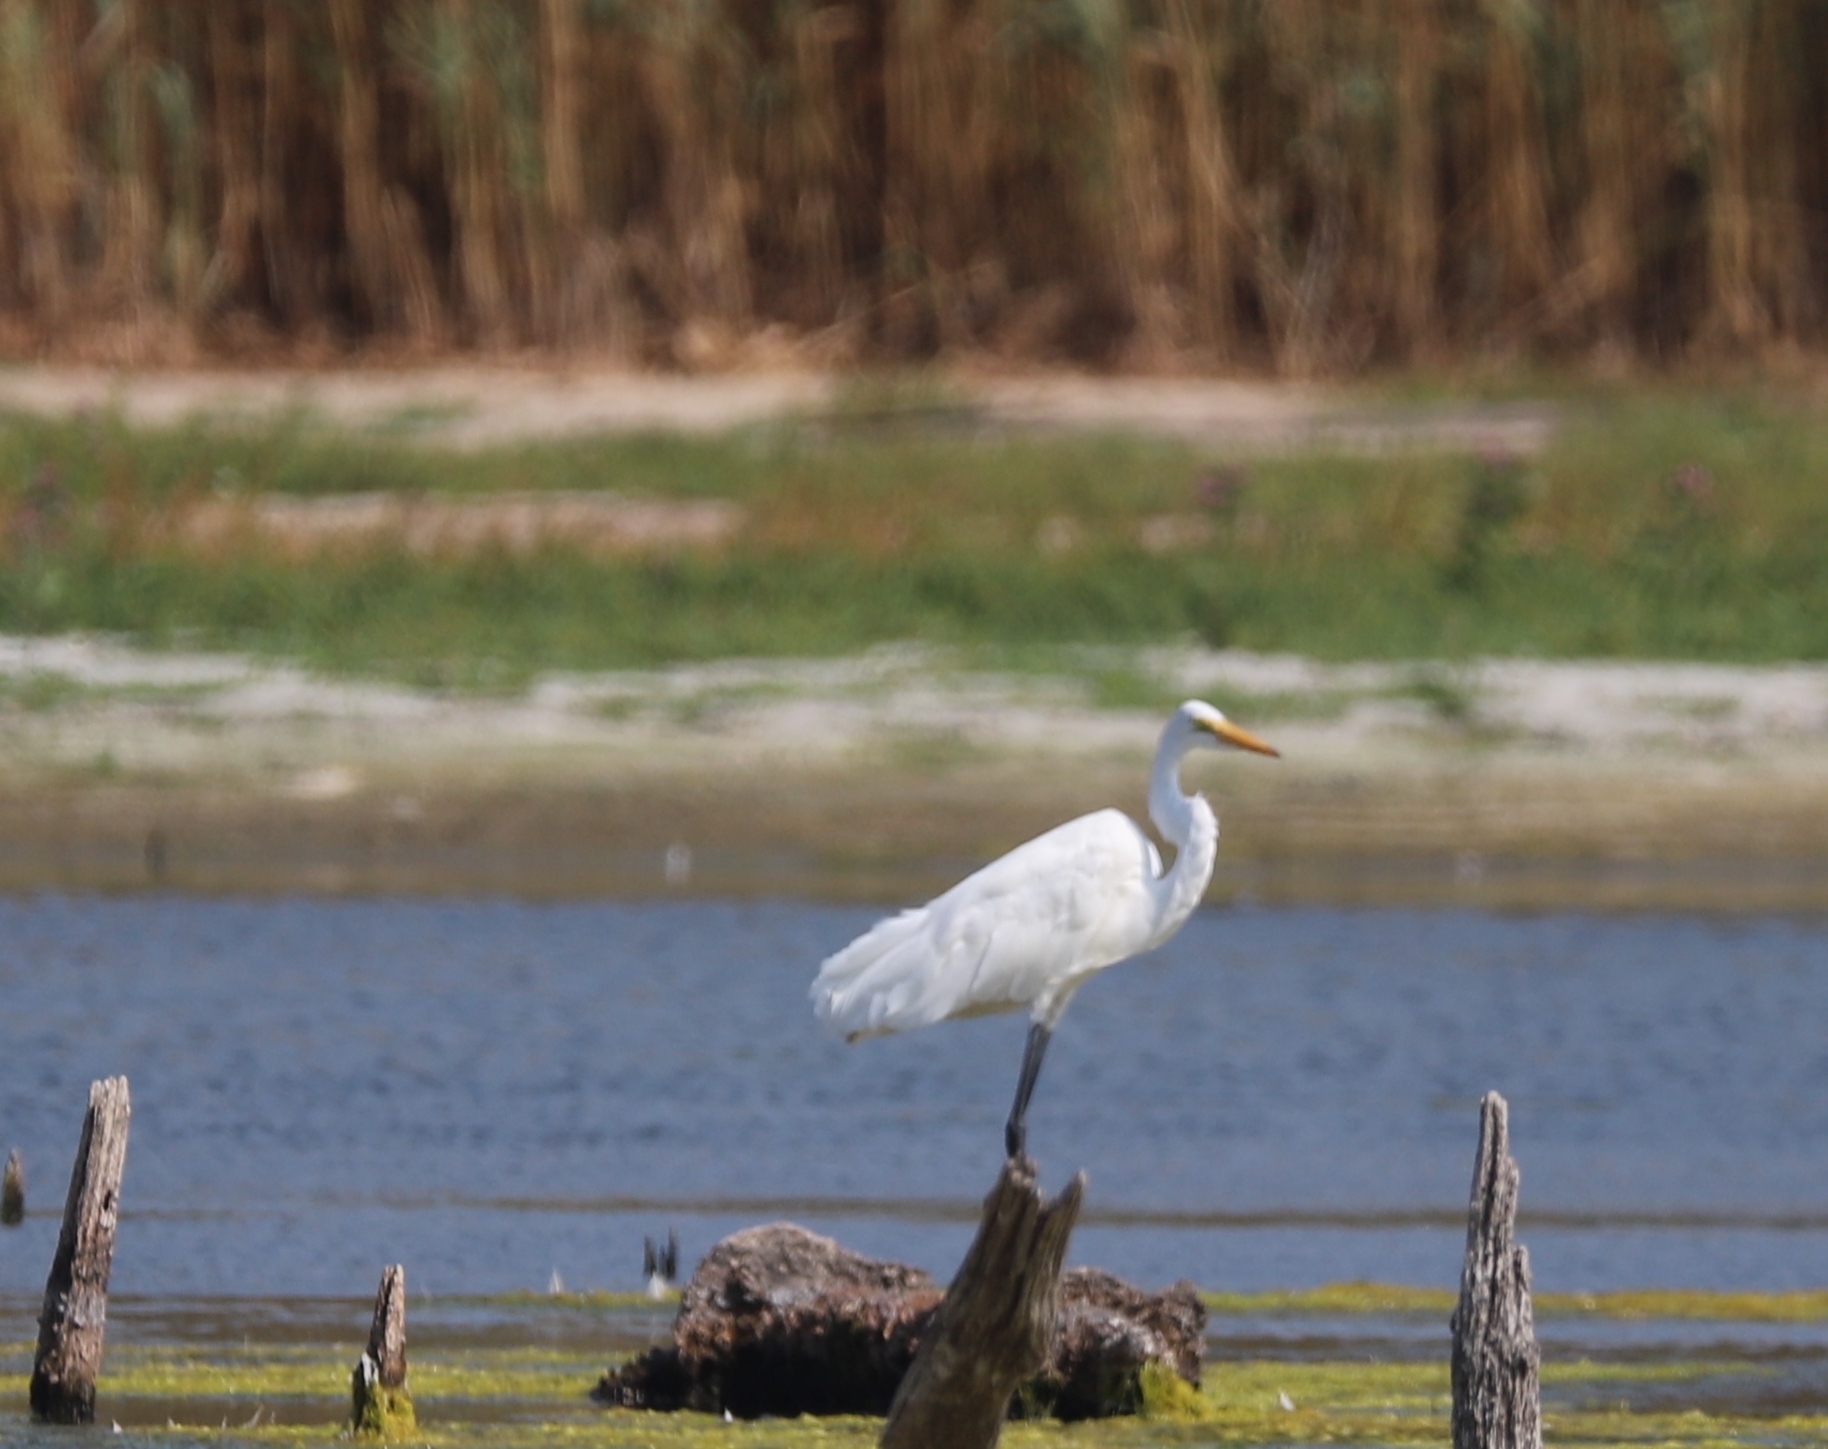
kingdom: Animalia
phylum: Chordata
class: Aves
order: Pelecaniformes
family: Ardeidae
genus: Ardea
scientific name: Ardea alba
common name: Great egret
